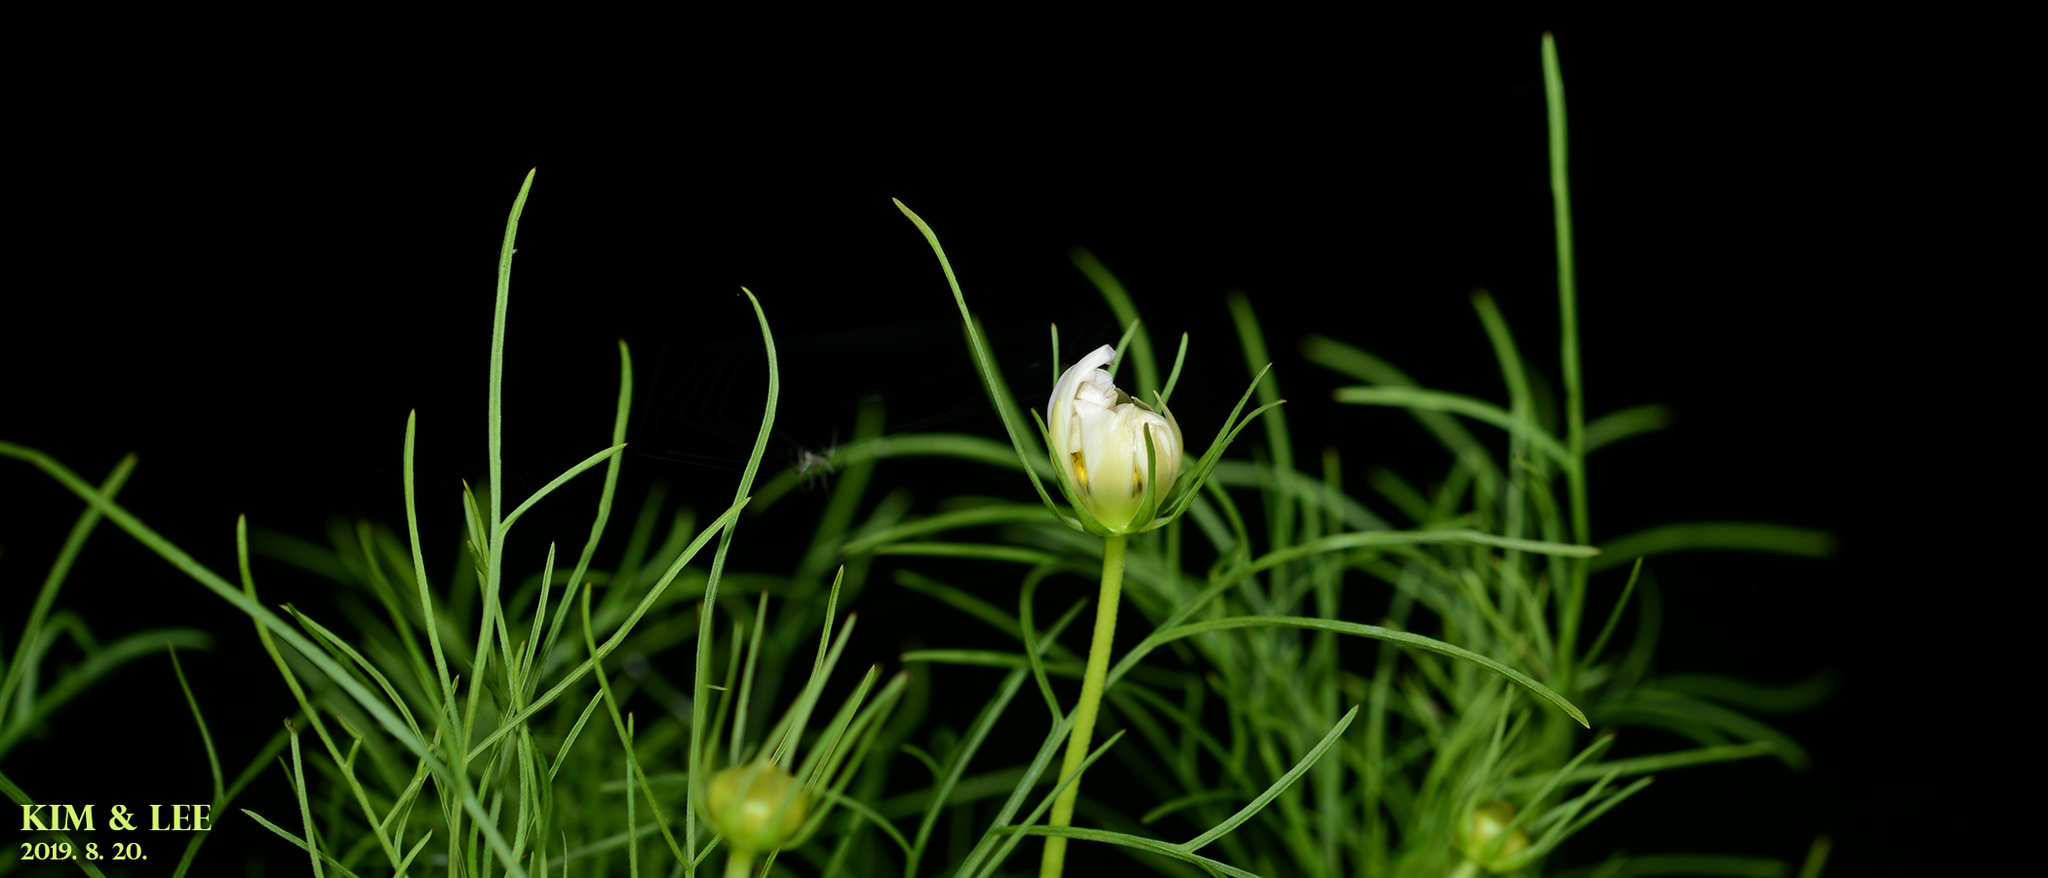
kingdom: Plantae
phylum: Tracheophyta
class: Magnoliopsida
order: Asterales
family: Asteraceae
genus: Cosmos
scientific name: Cosmos bipinnatus
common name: Garden cosmos
